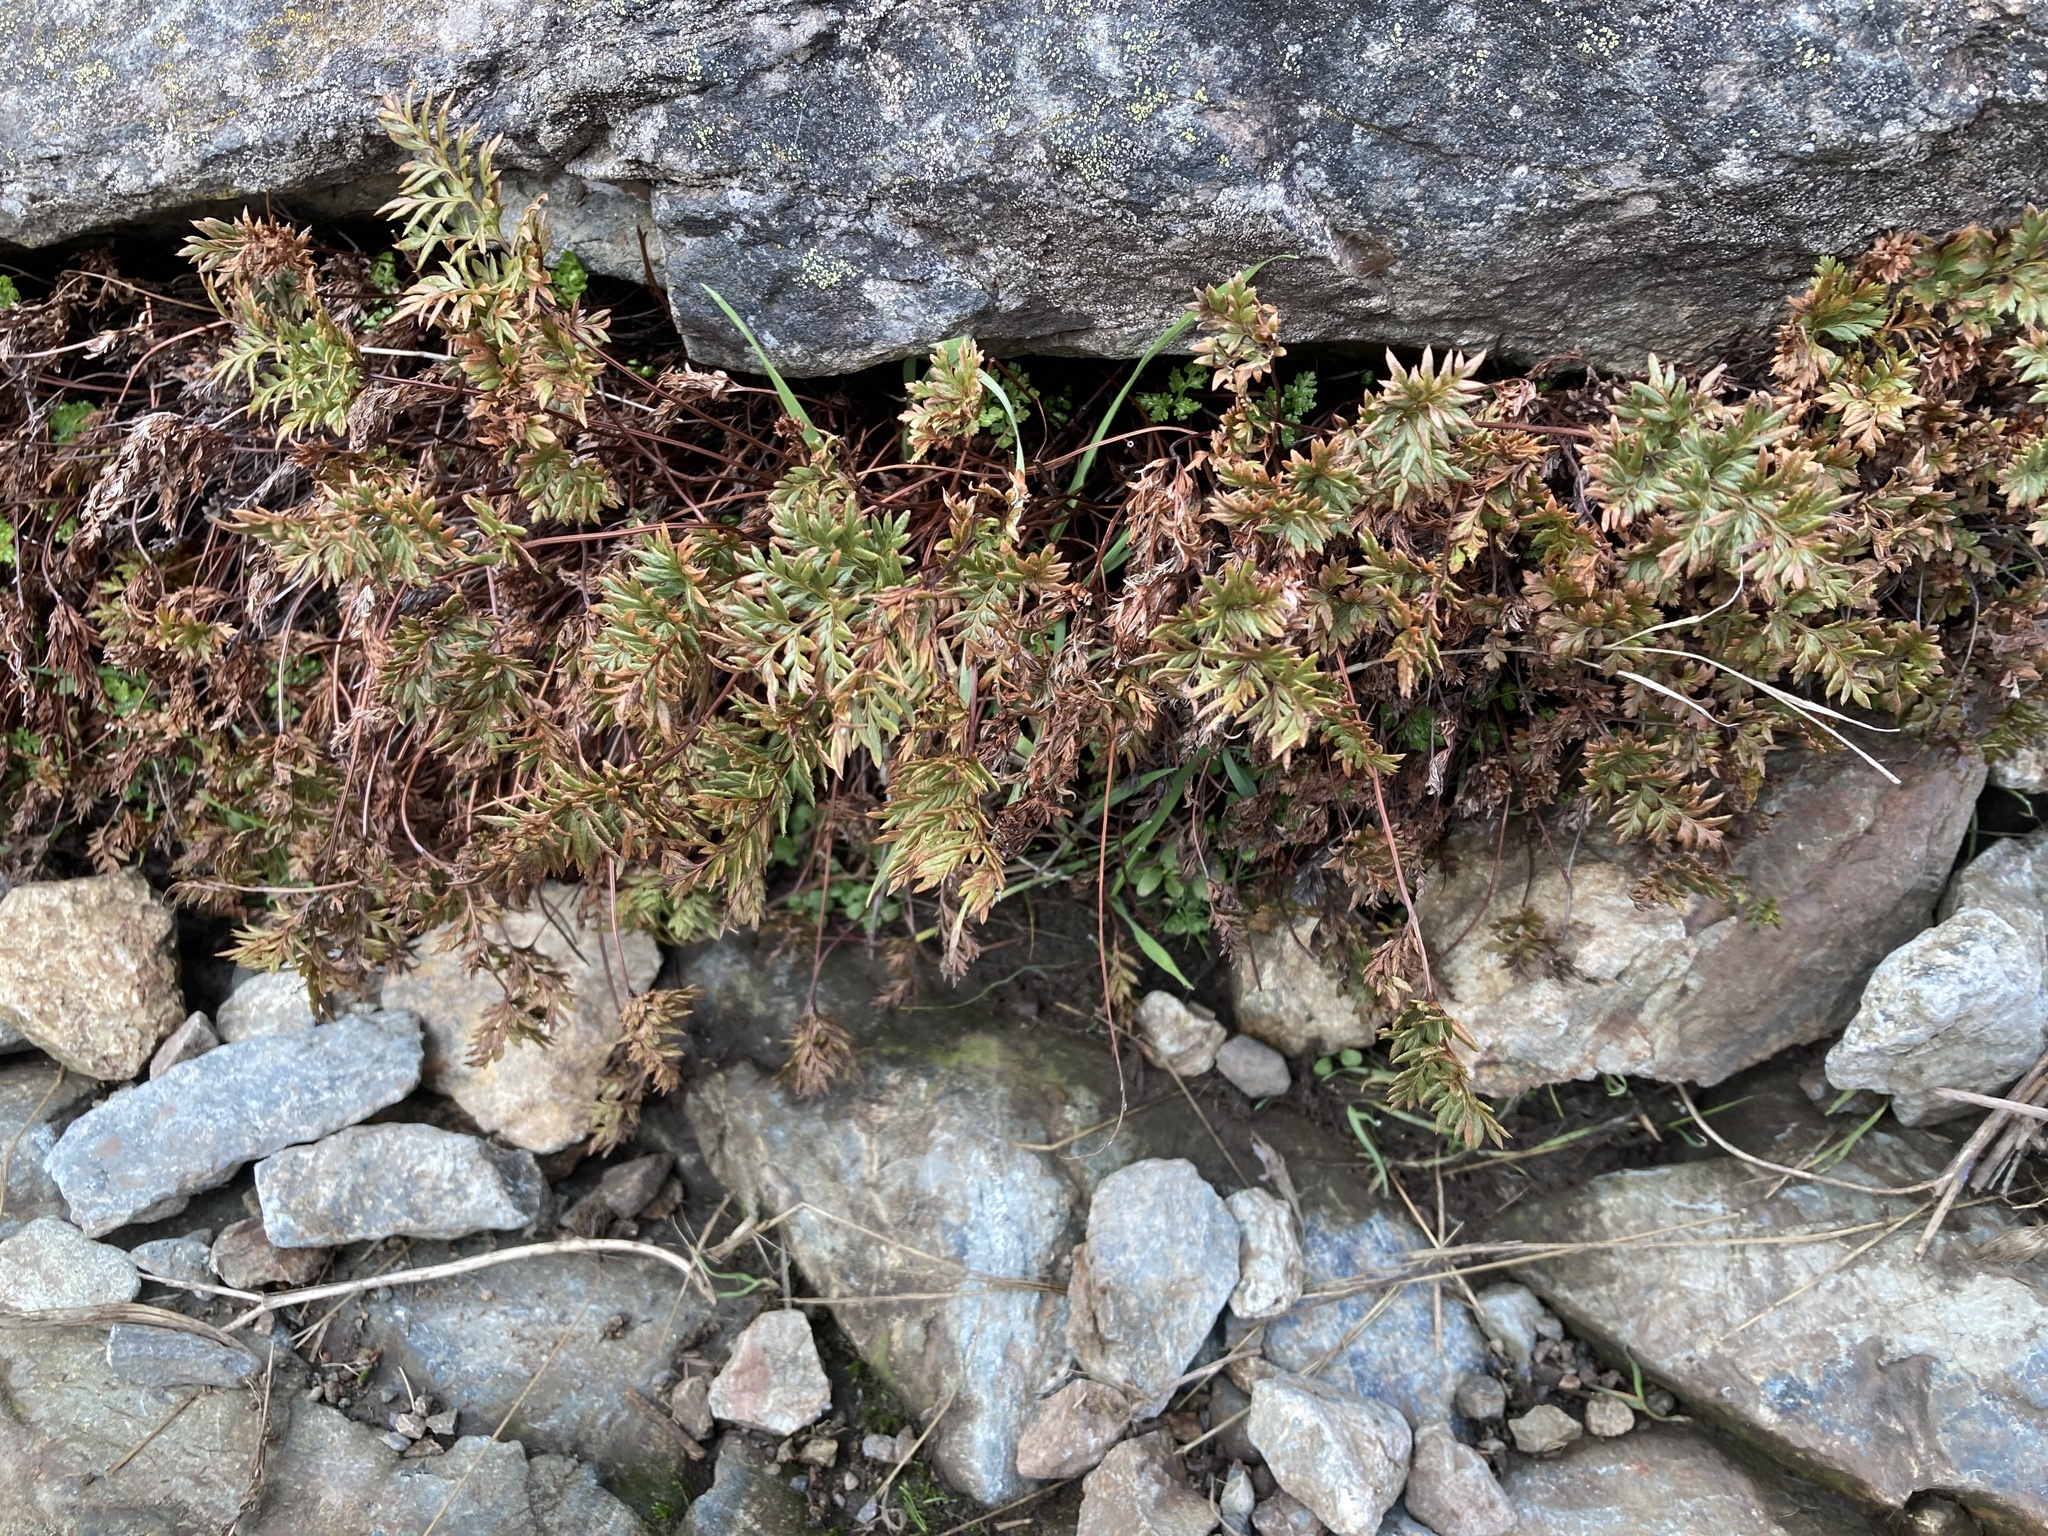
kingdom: Plantae
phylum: Tracheophyta
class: Polypodiopsida
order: Polypodiales
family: Pteridaceae
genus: Aspidotis
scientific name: Aspidotis densa
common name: Indian's dream
